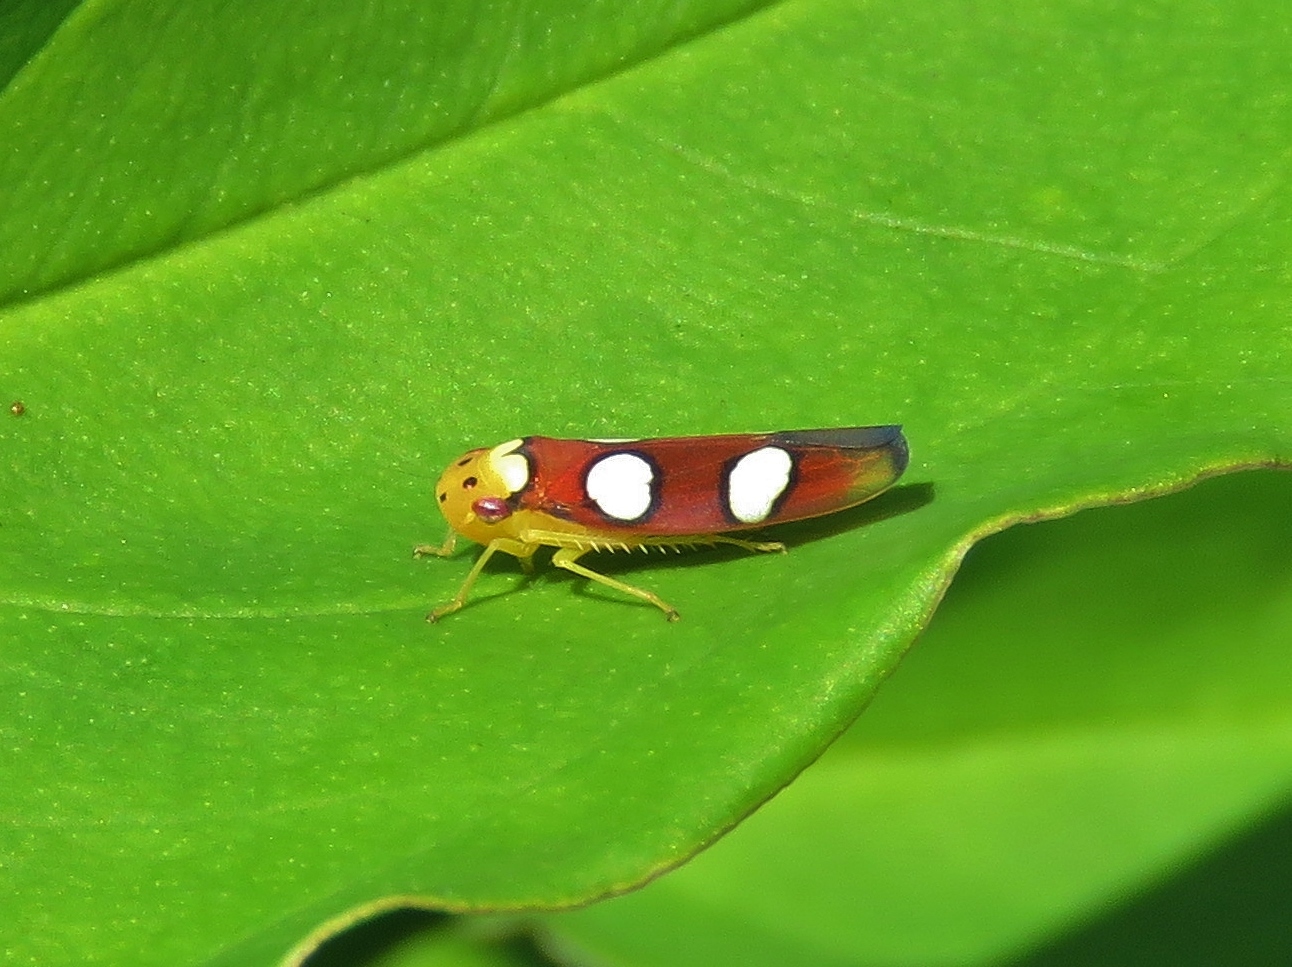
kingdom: Animalia
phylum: Arthropoda
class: Insecta
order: Hemiptera
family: Cicadellidae
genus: Erythrogonia
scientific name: Erythrogonia laudata
